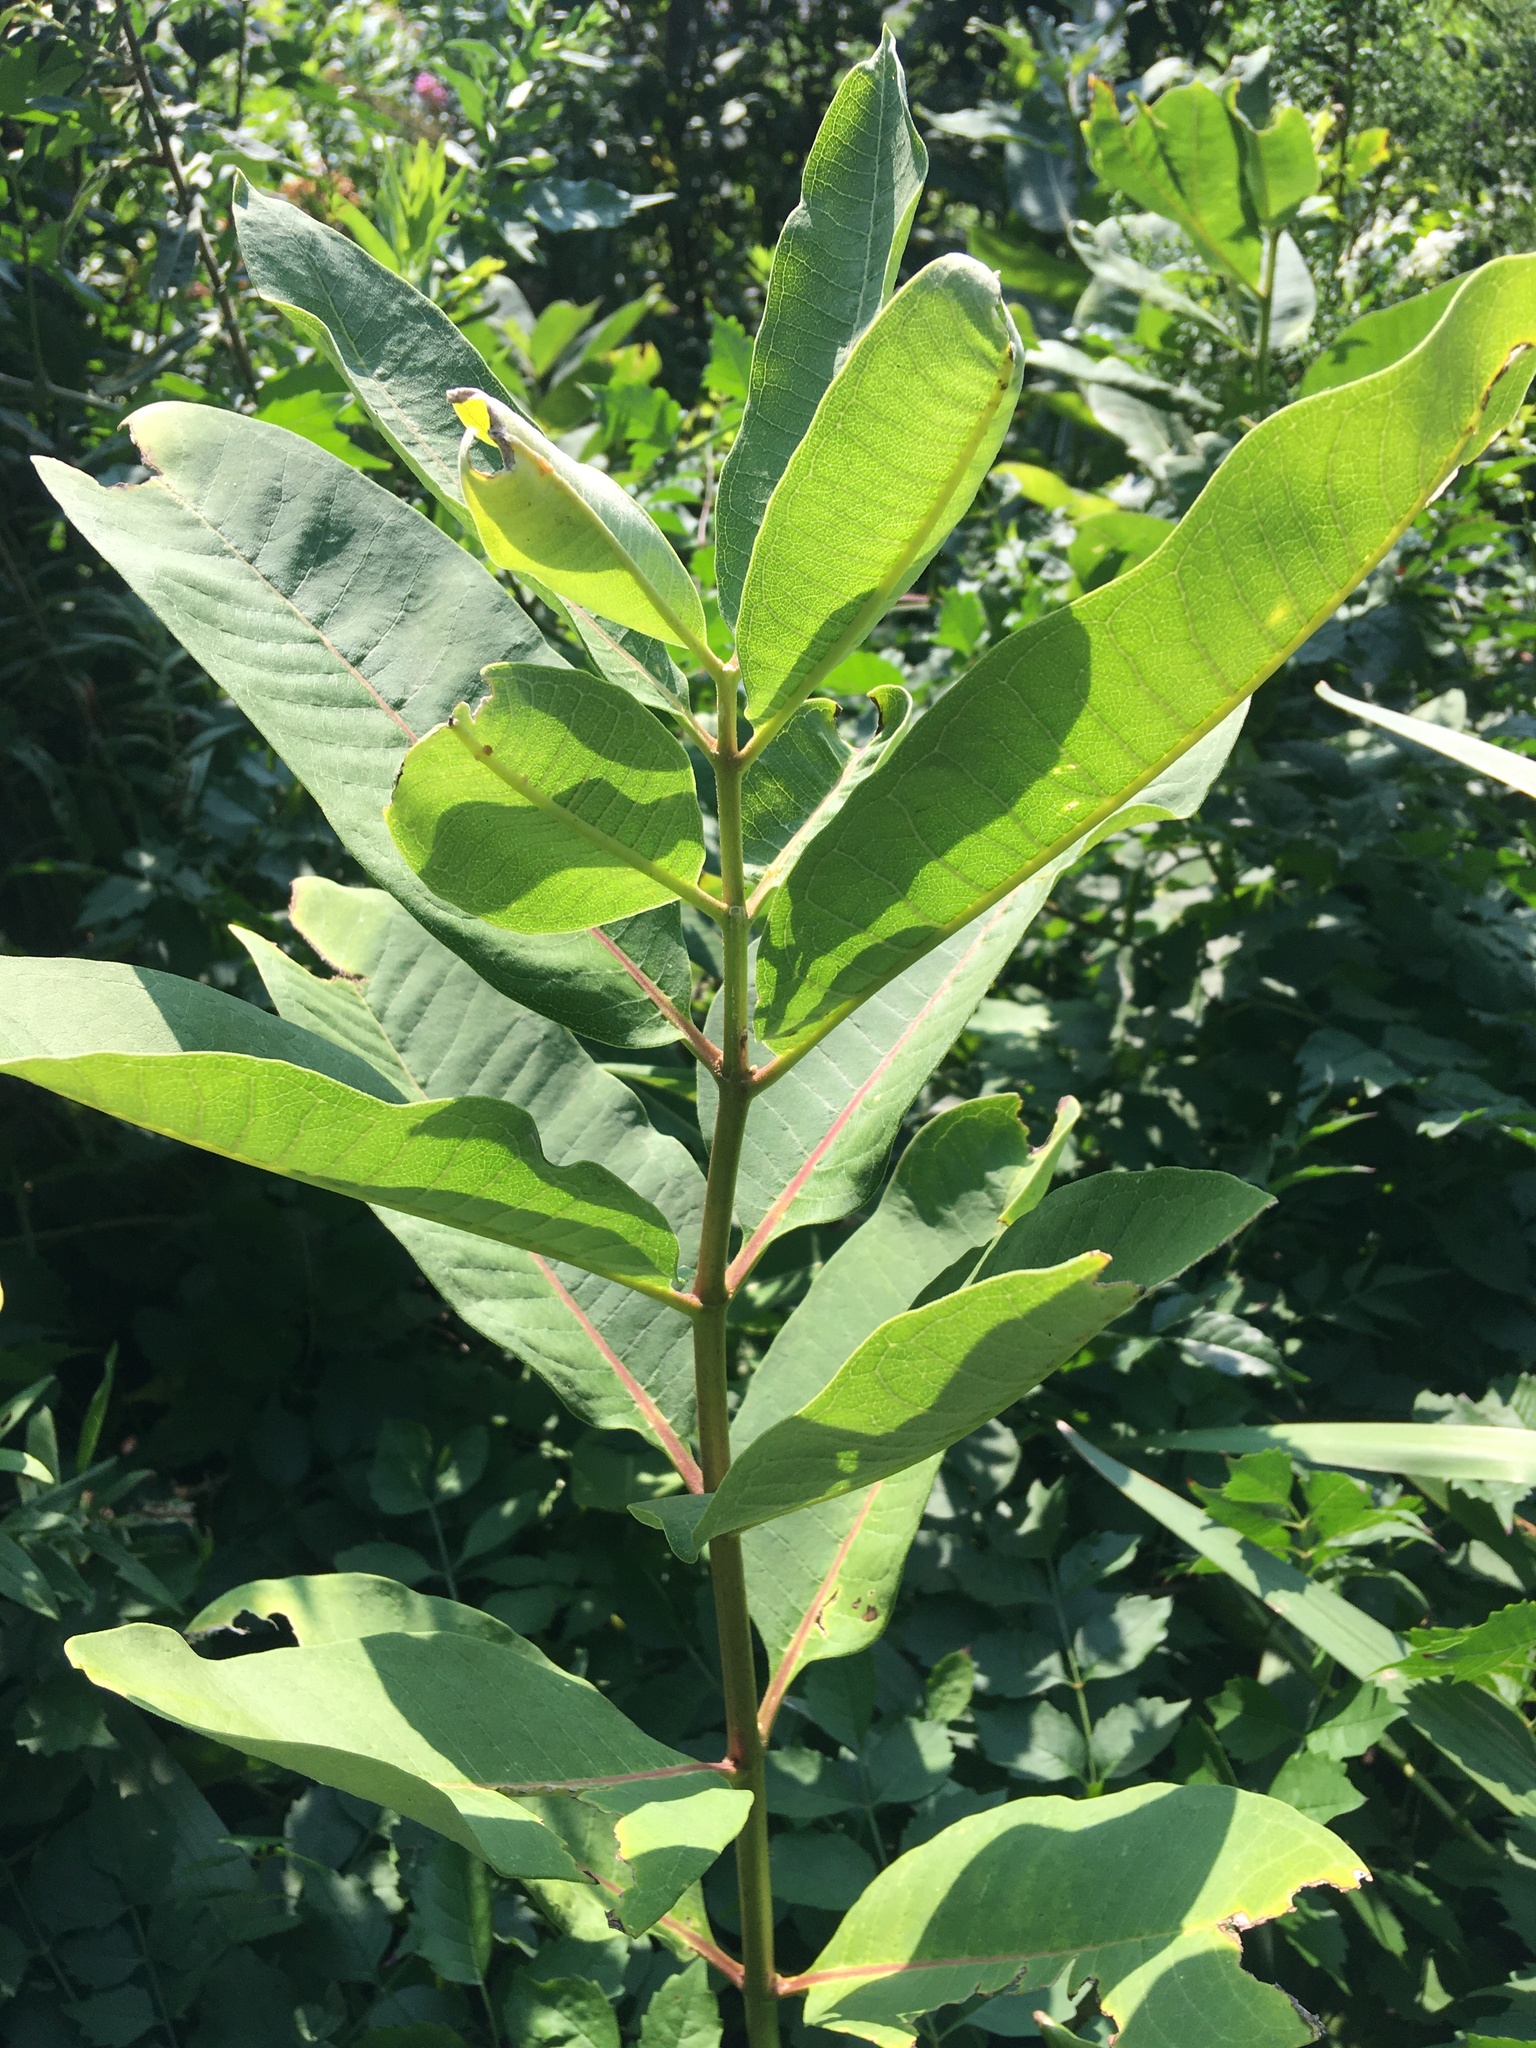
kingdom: Plantae
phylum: Tracheophyta
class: Magnoliopsida
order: Gentianales
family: Apocynaceae
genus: Asclepias
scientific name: Asclepias syriaca
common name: Common milkweed
